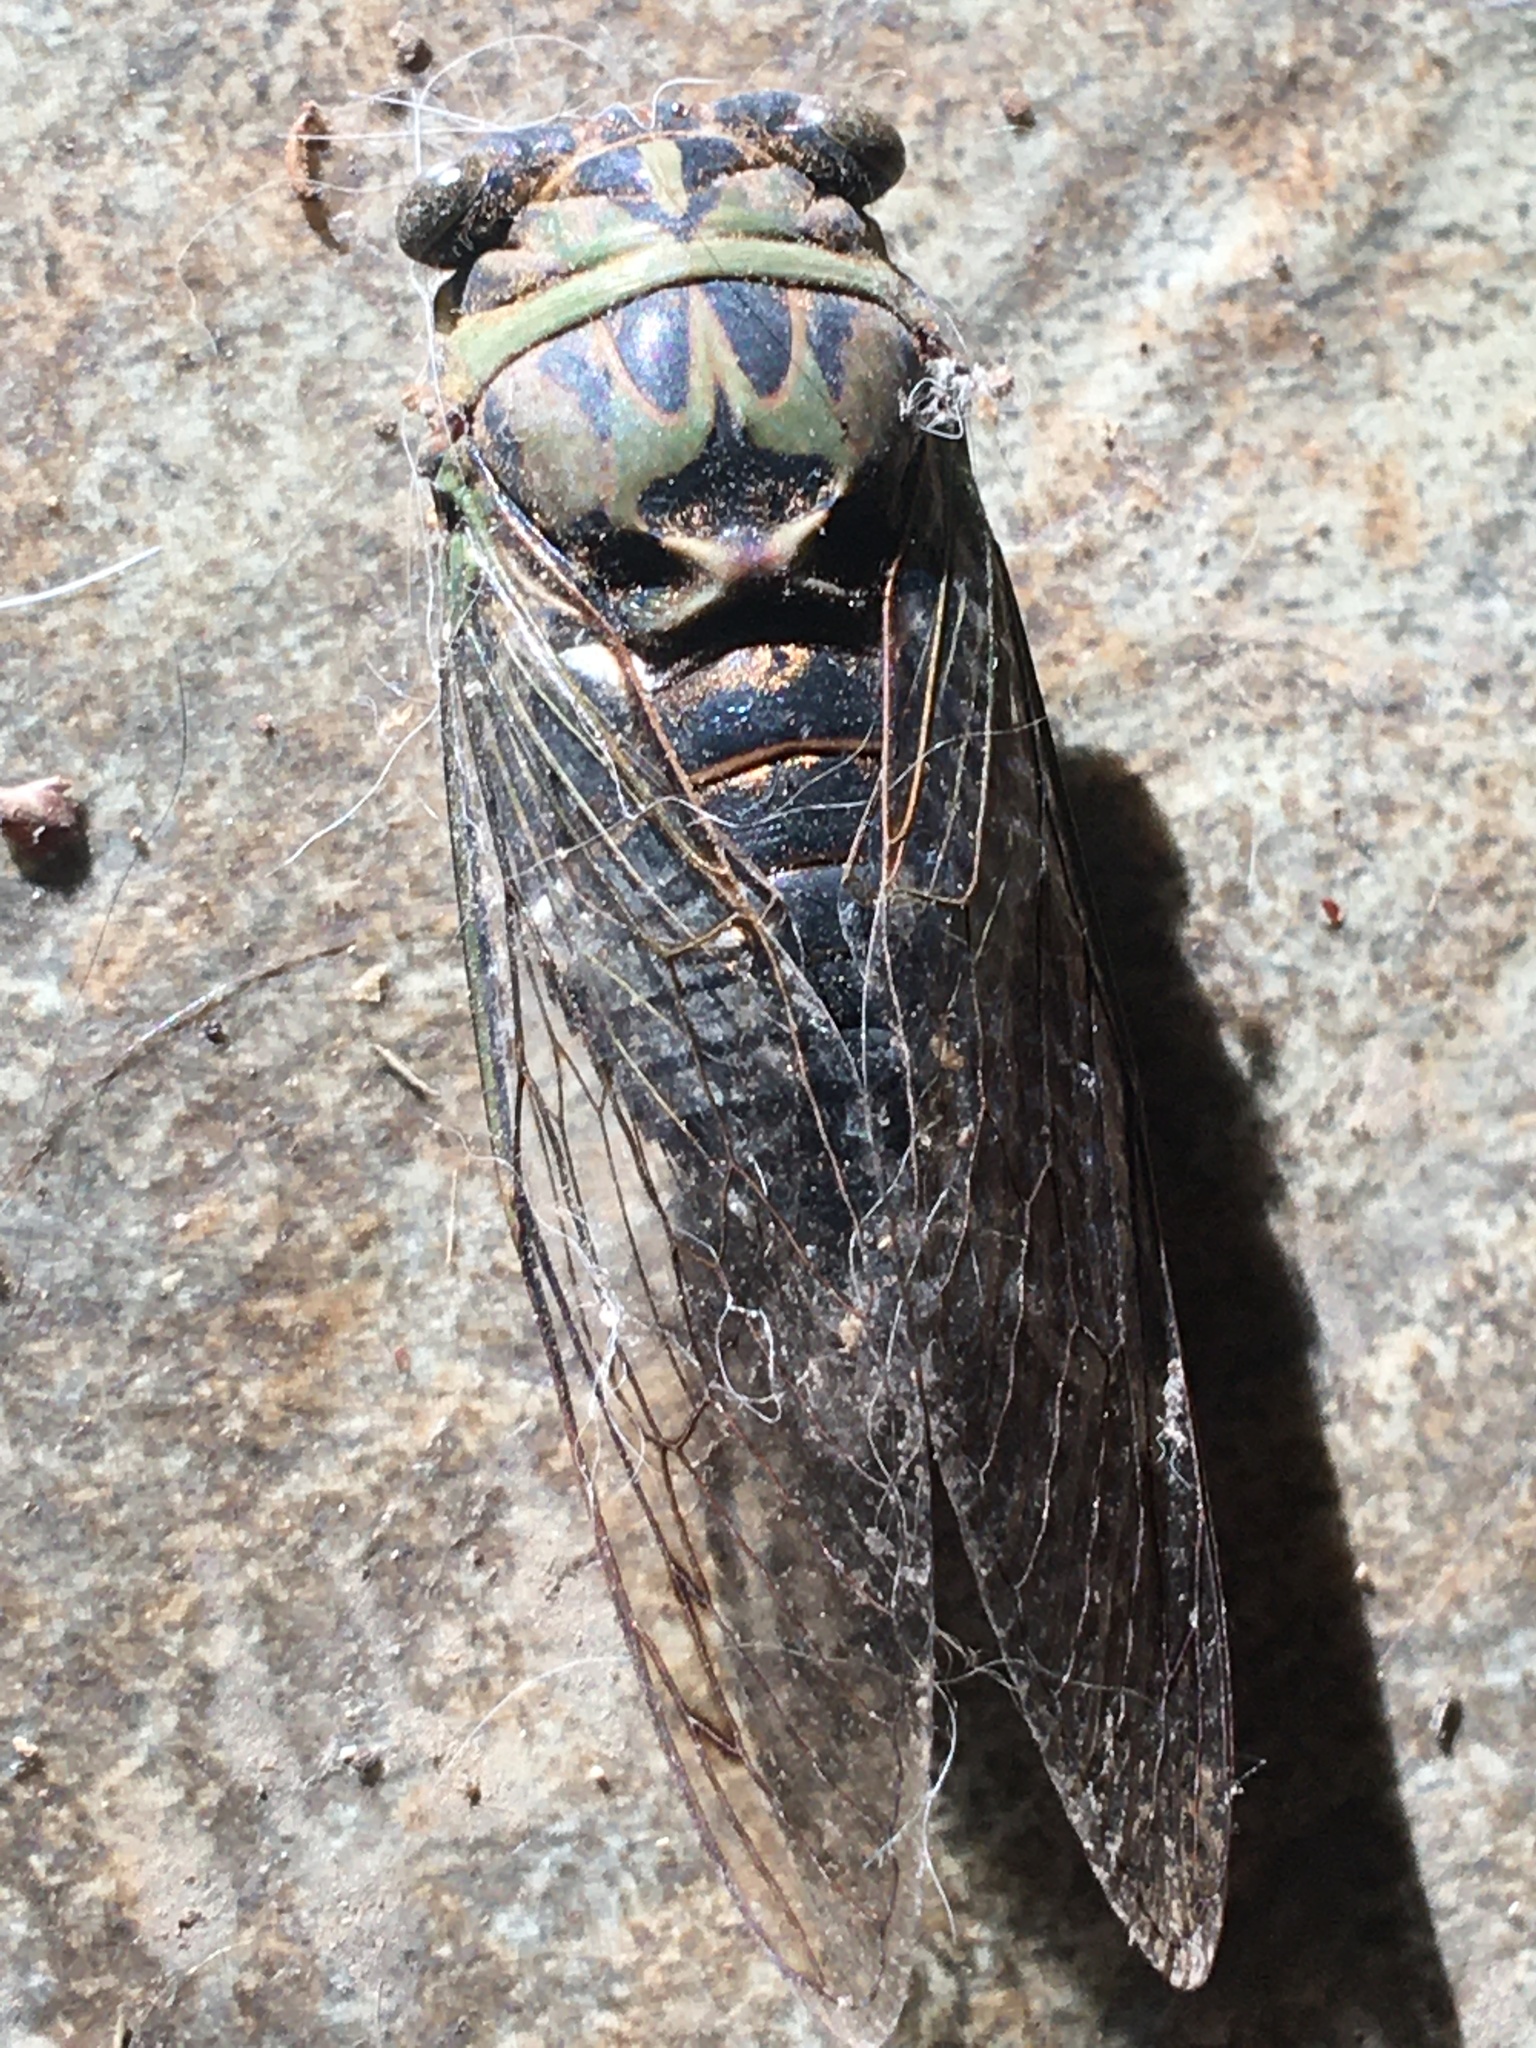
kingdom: Animalia
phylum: Arthropoda
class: Insecta
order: Hemiptera
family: Cicadidae
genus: Neotibicen
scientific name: Neotibicen pruinosus
